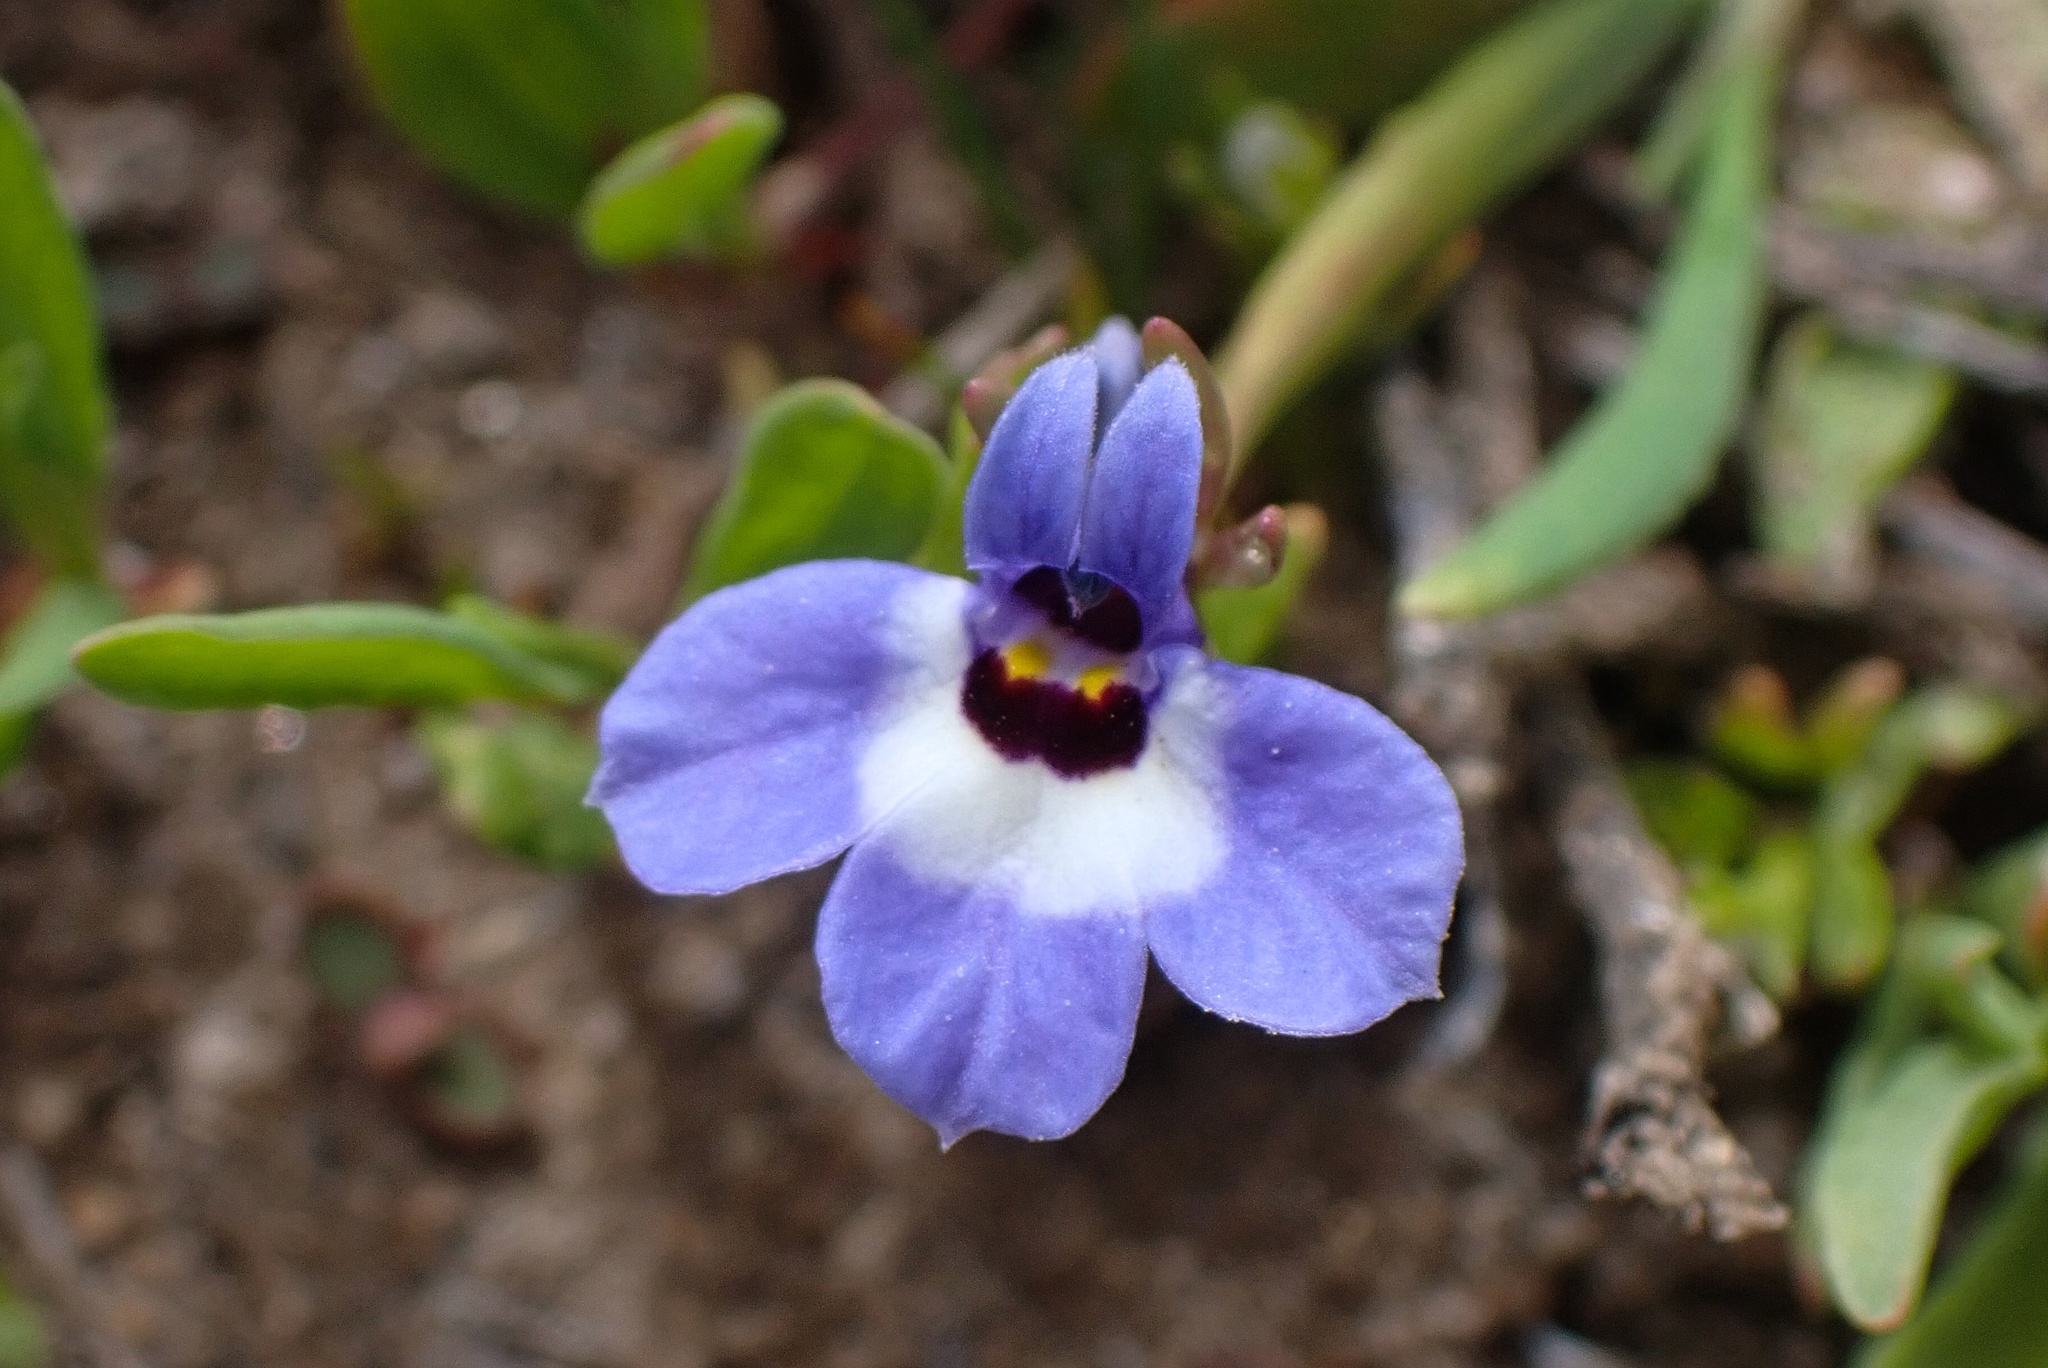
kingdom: Plantae
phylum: Tracheophyta
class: Magnoliopsida
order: Asterales
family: Campanulaceae
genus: Downingia
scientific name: Downingia concolor
